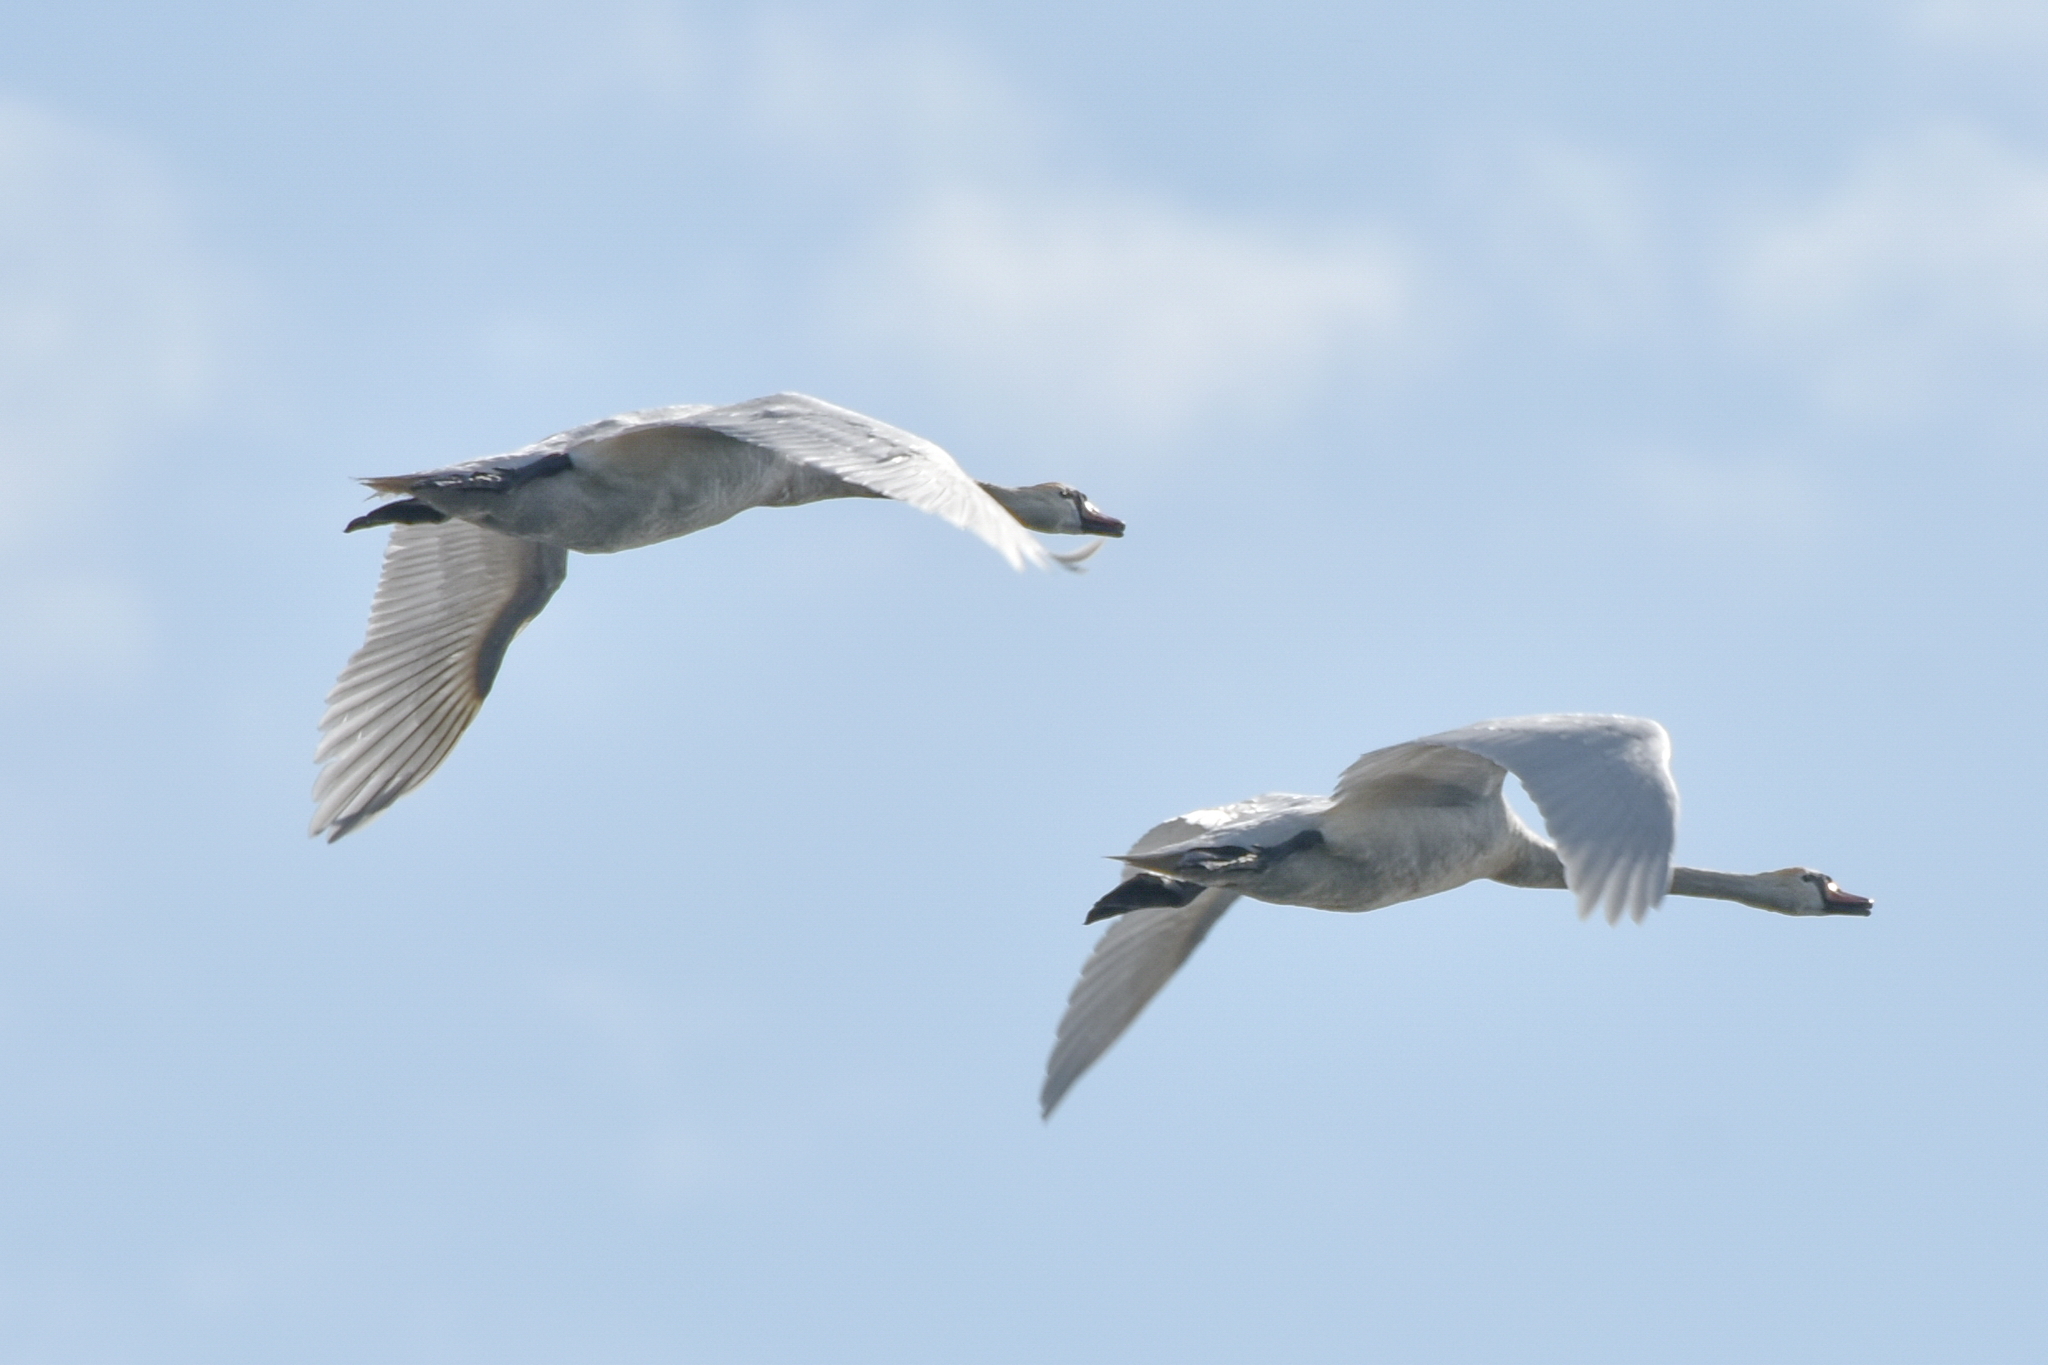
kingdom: Animalia
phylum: Chordata
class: Aves
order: Anseriformes
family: Anatidae
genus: Cygnus
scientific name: Cygnus olor
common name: Mute swan
